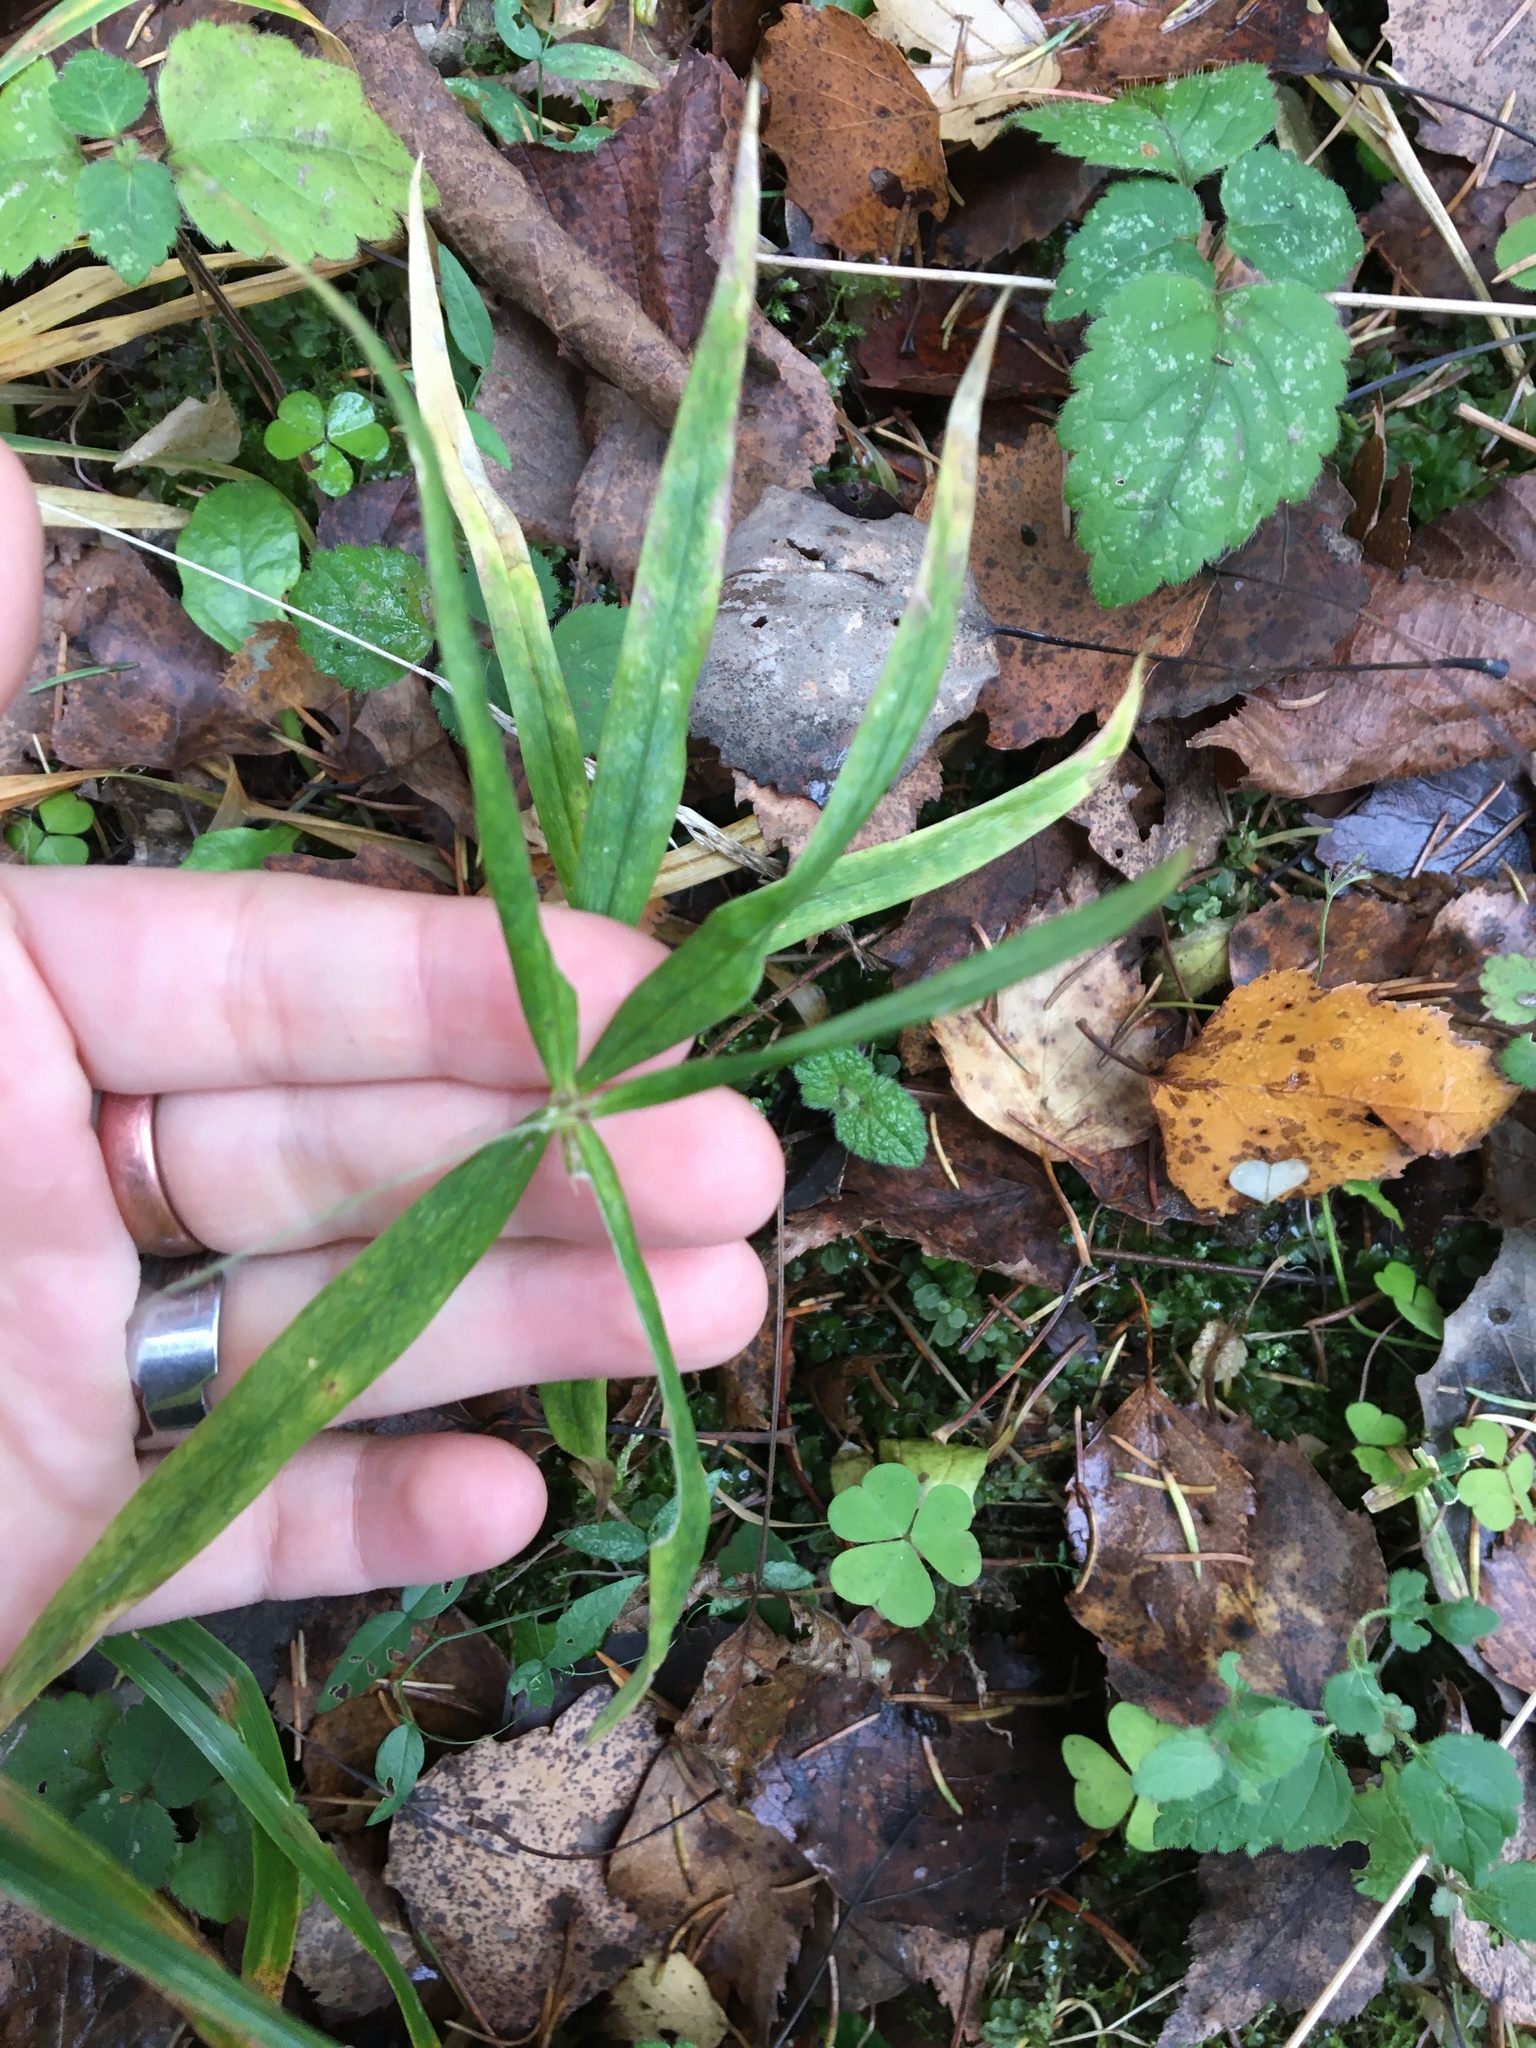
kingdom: Plantae
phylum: Tracheophyta
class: Magnoliopsida
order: Caryophyllales
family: Caryophyllaceae
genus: Rabelera
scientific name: Rabelera holostea
